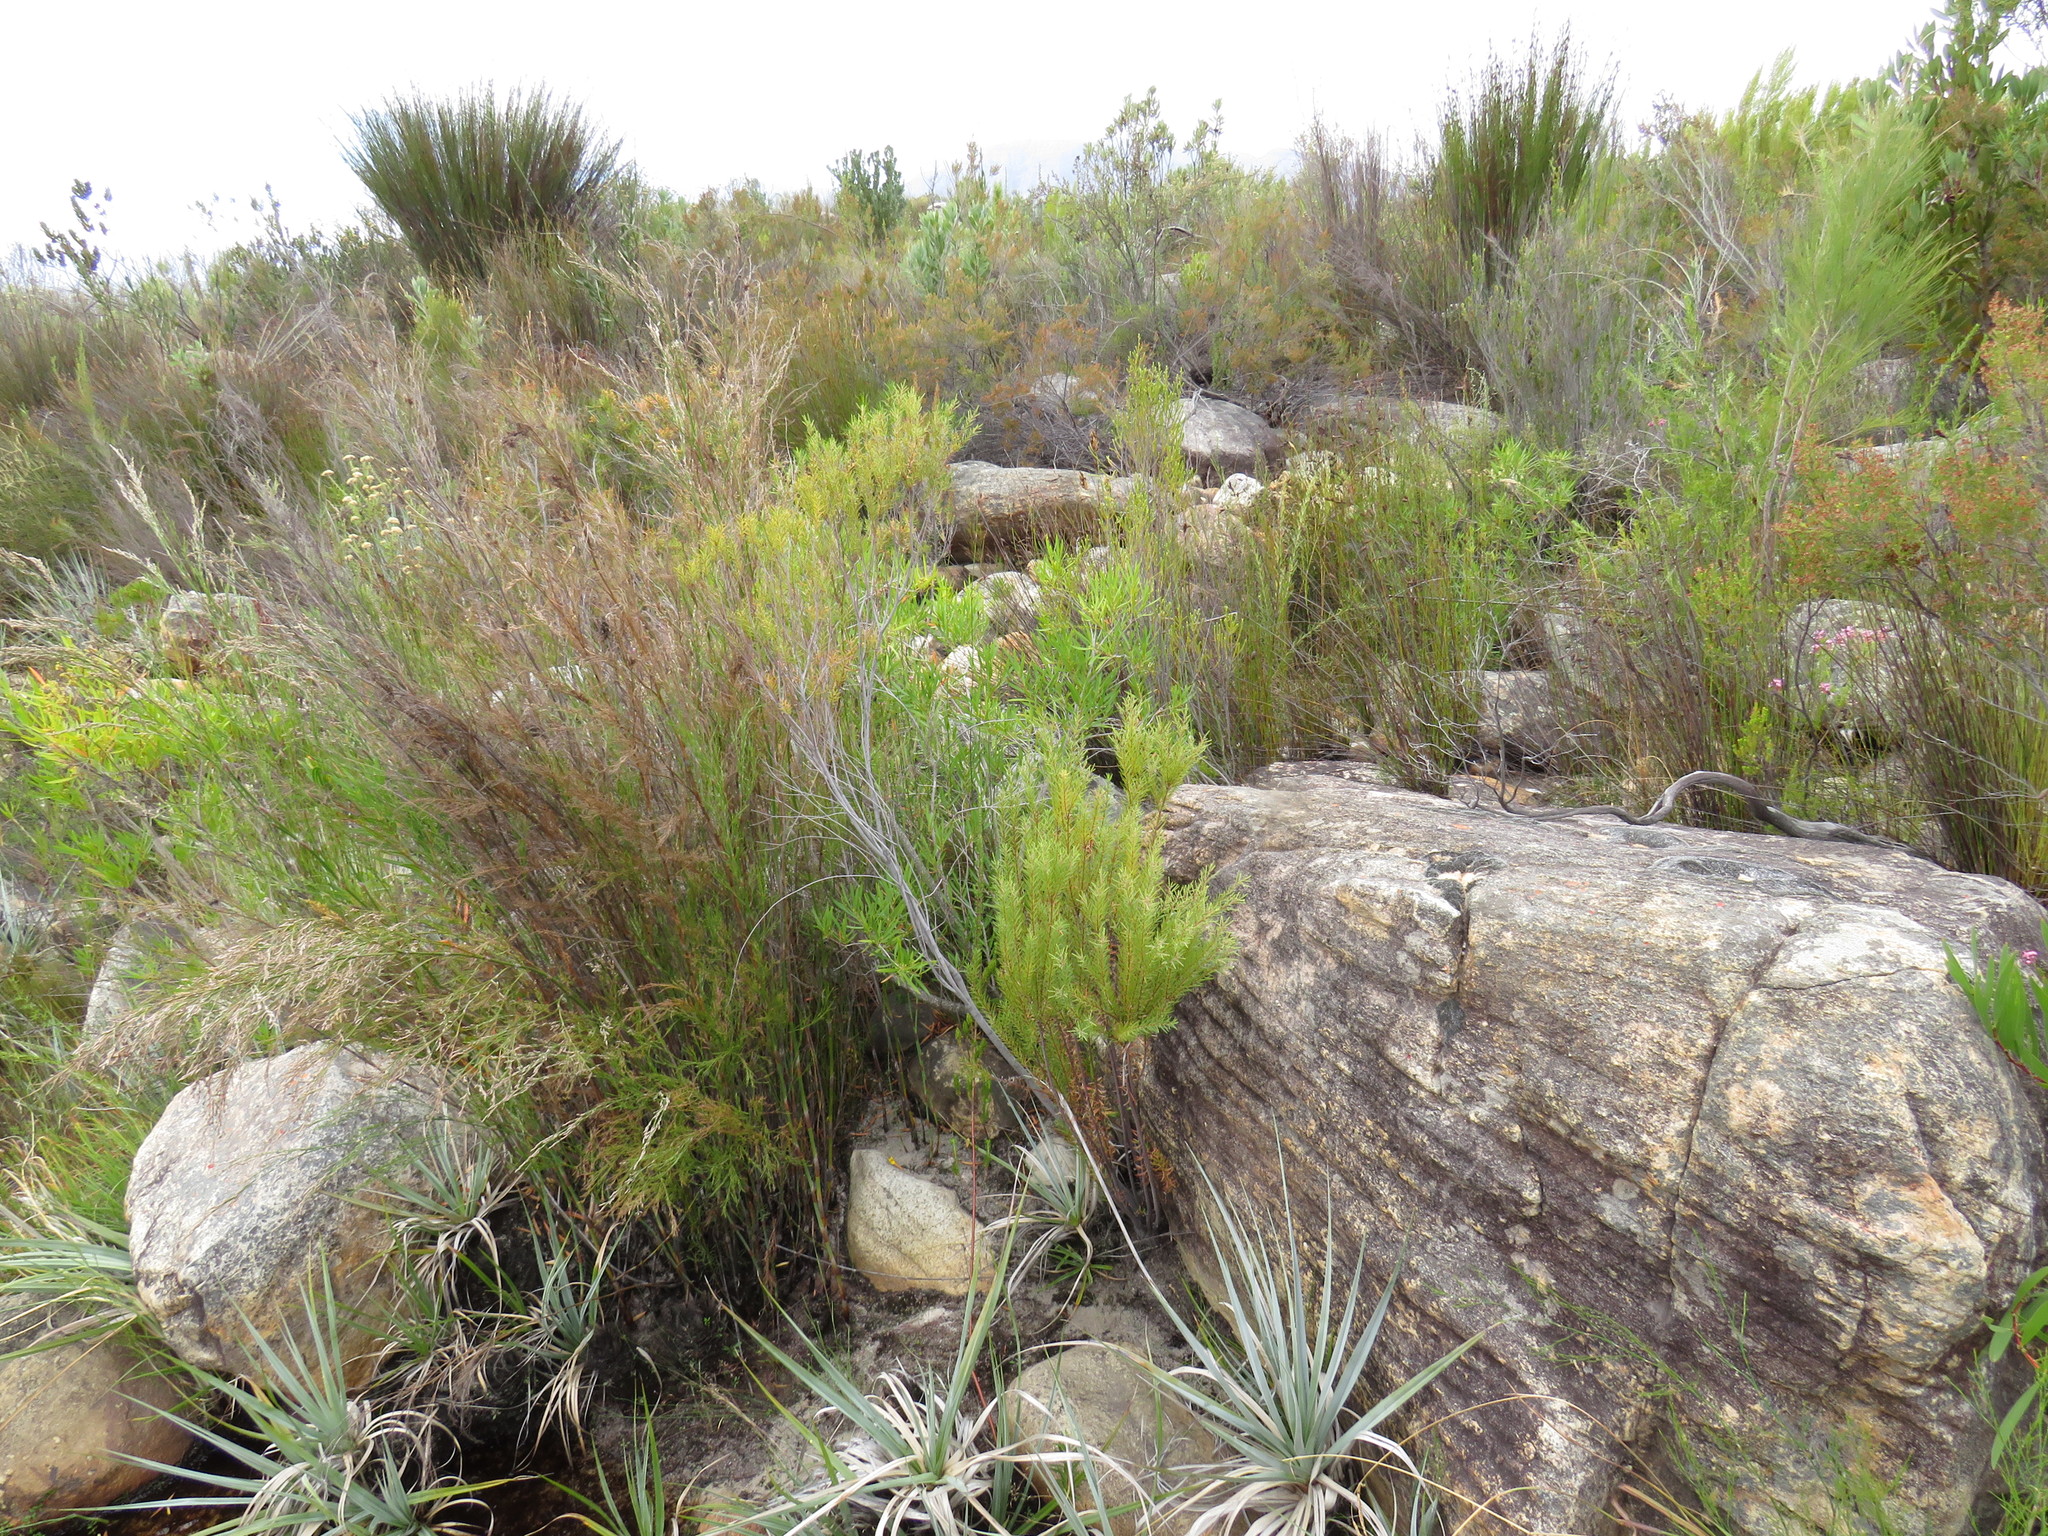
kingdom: Plantae
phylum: Tracheophyta
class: Magnoliopsida
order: Bruniales
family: Bruniaceae
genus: Brunia
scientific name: Brunia africana
